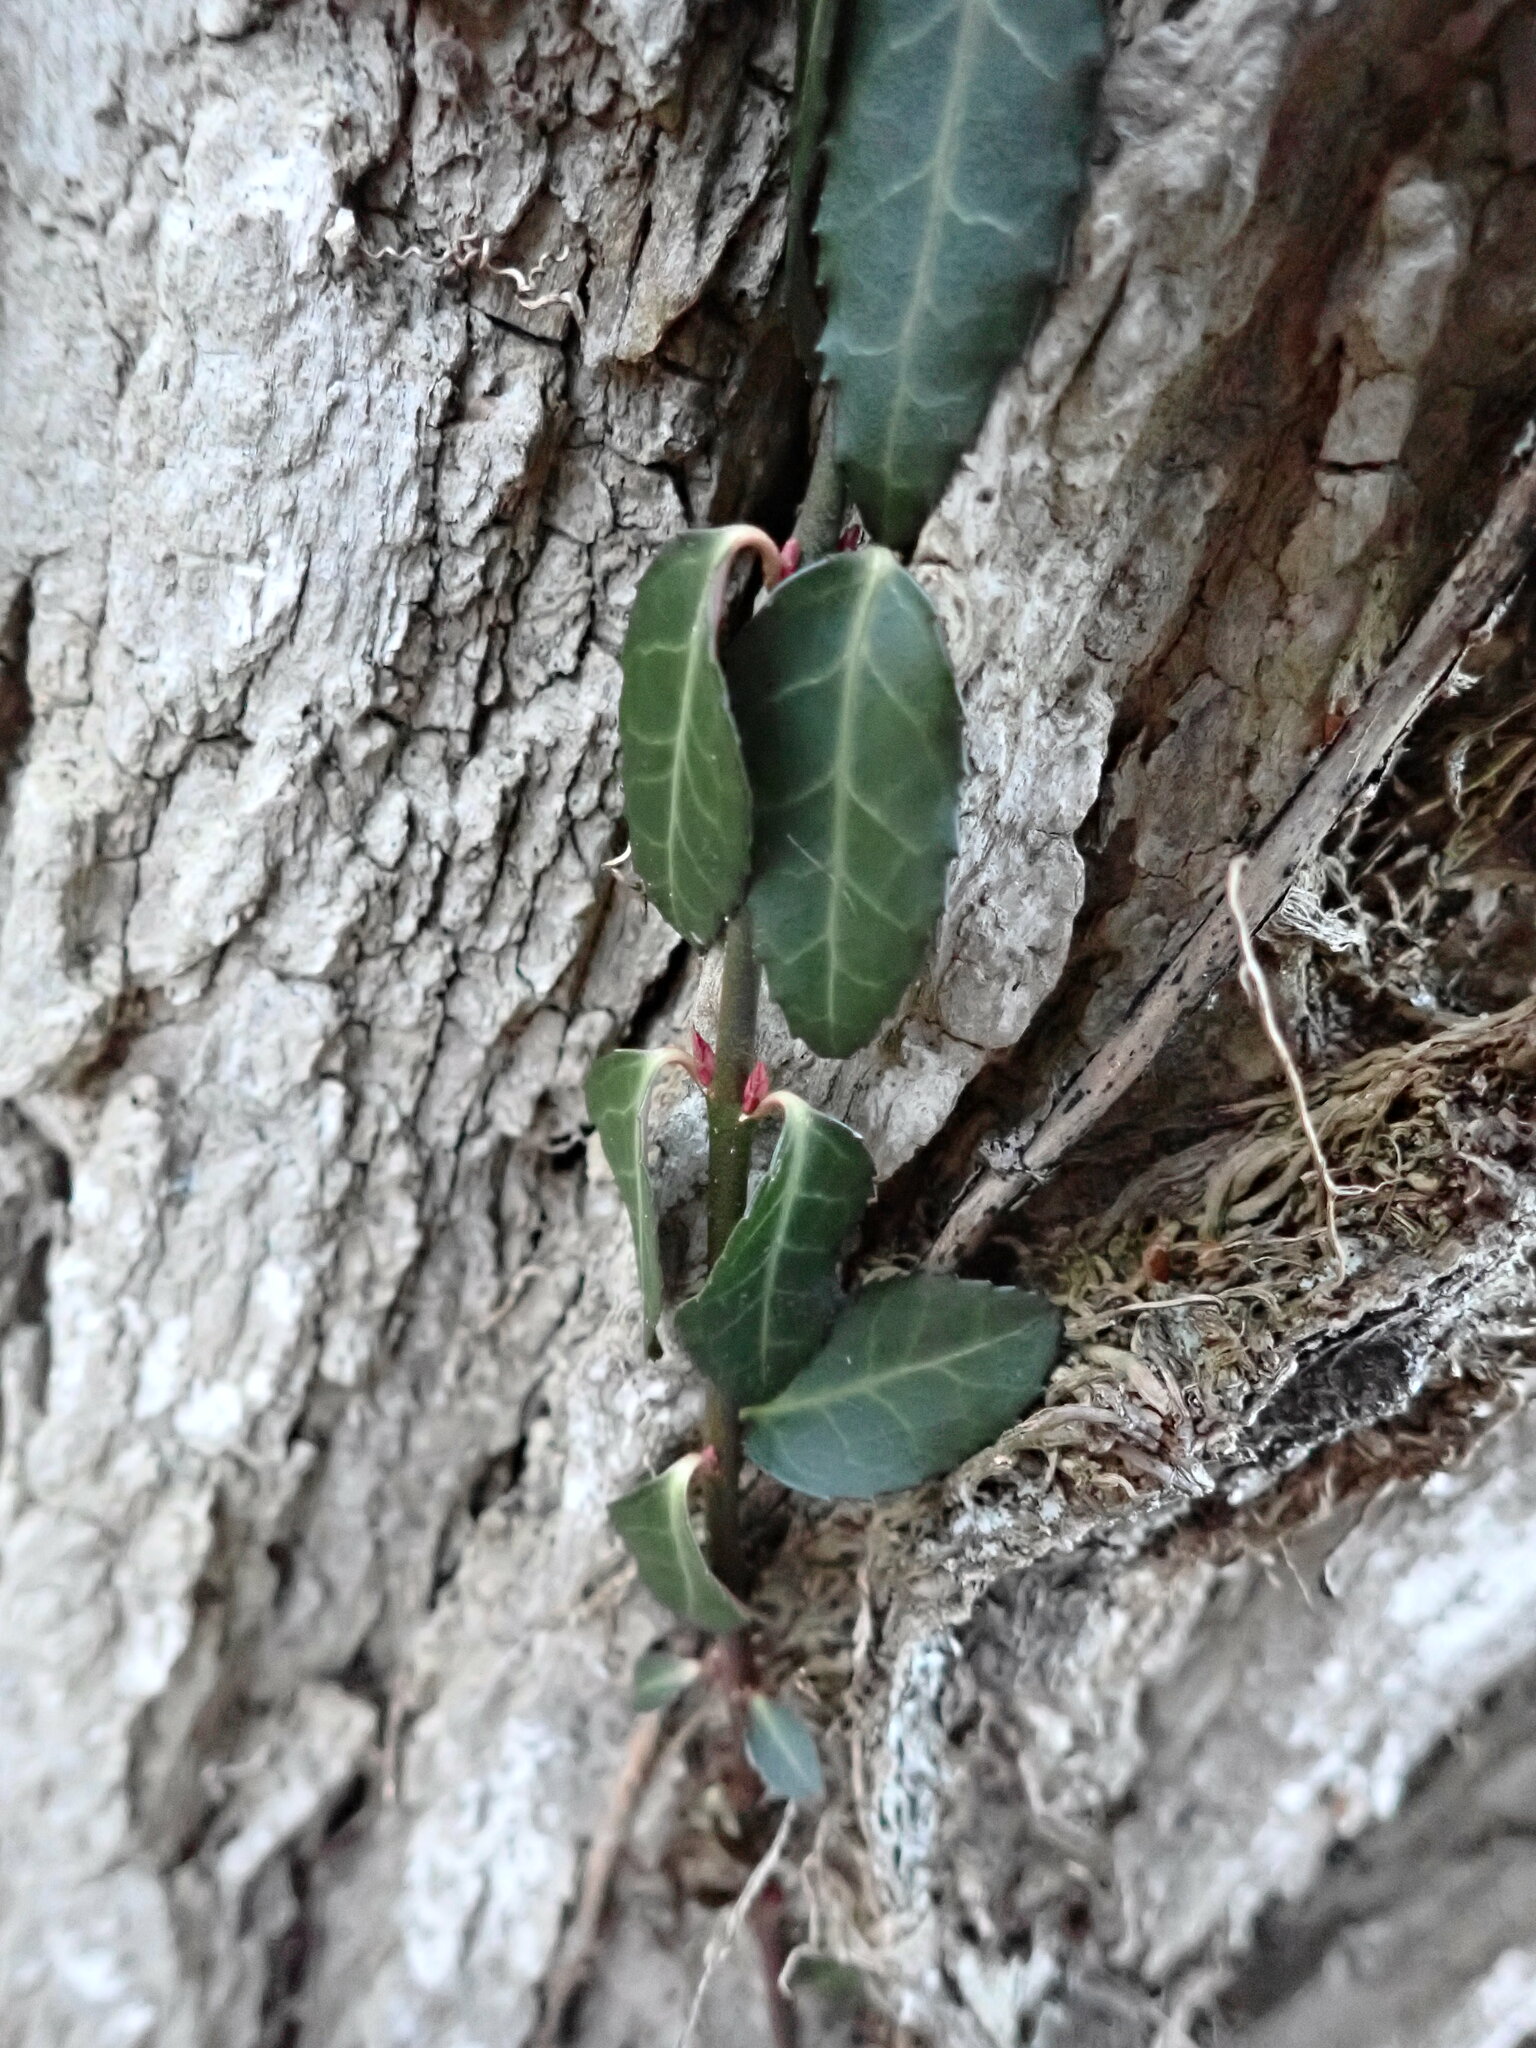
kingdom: Plantae
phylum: Tracheophyta
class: Magnoliopsida
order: Celastrales
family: Celastraceae
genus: Euonymus
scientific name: Euonymus fortunei
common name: Climbing euonymus
